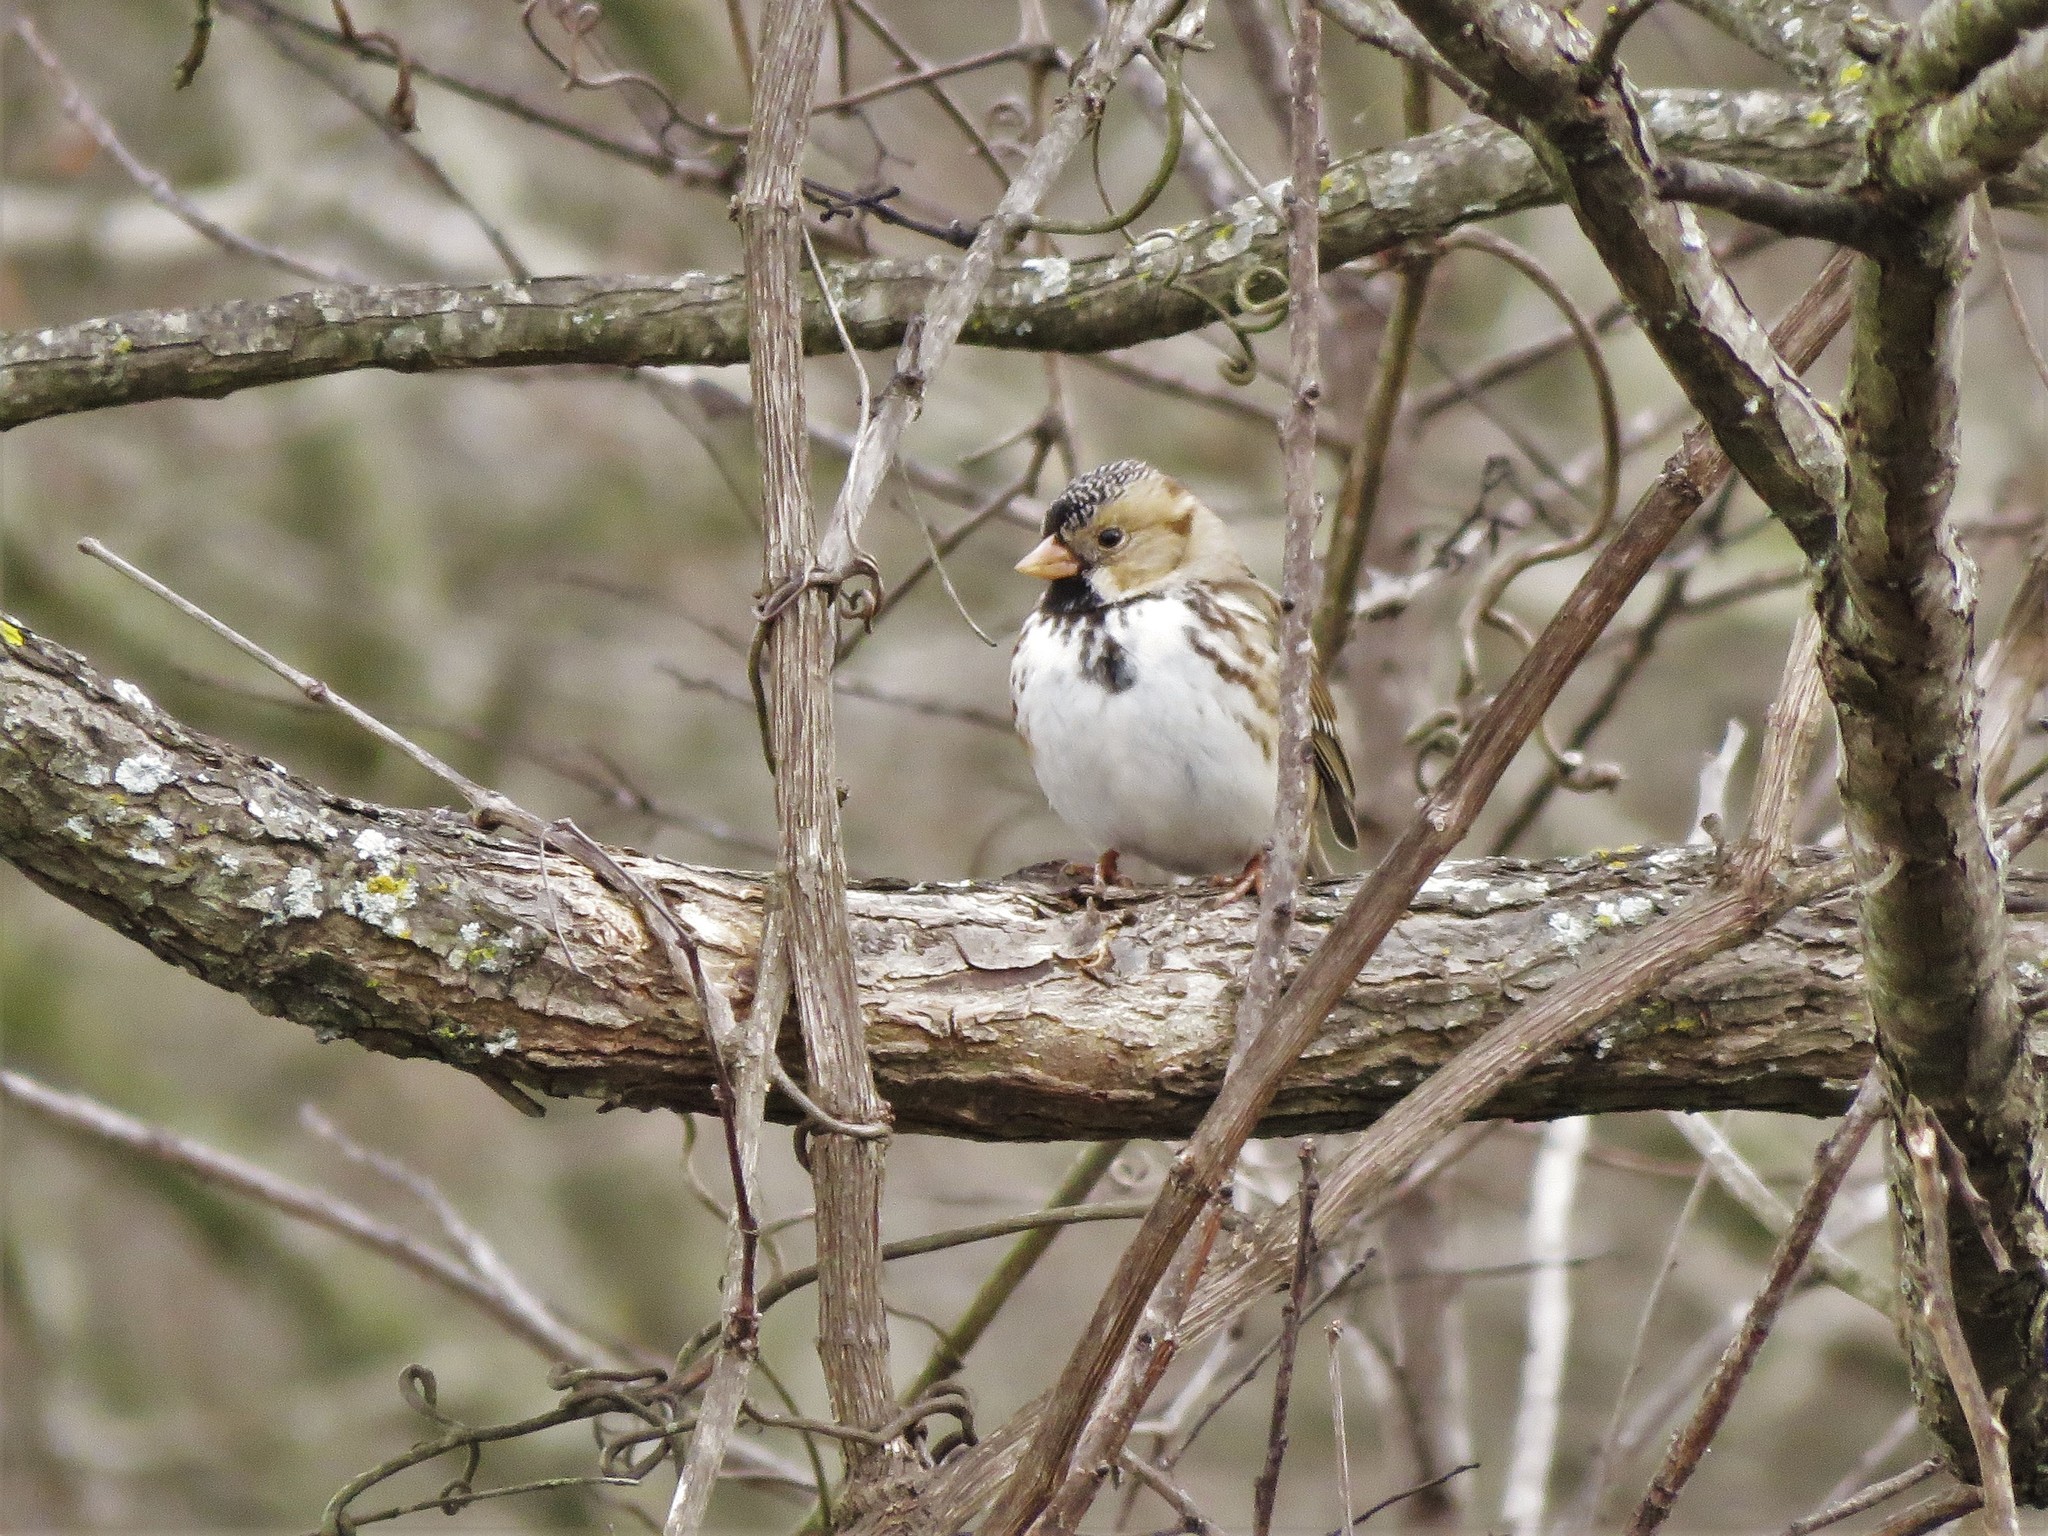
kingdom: Animalia
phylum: Chordata
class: Aves
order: Passeriformes
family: Passerellidae
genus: Zonotrichia
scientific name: Zonotrichia querula
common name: Harris's sparrow
